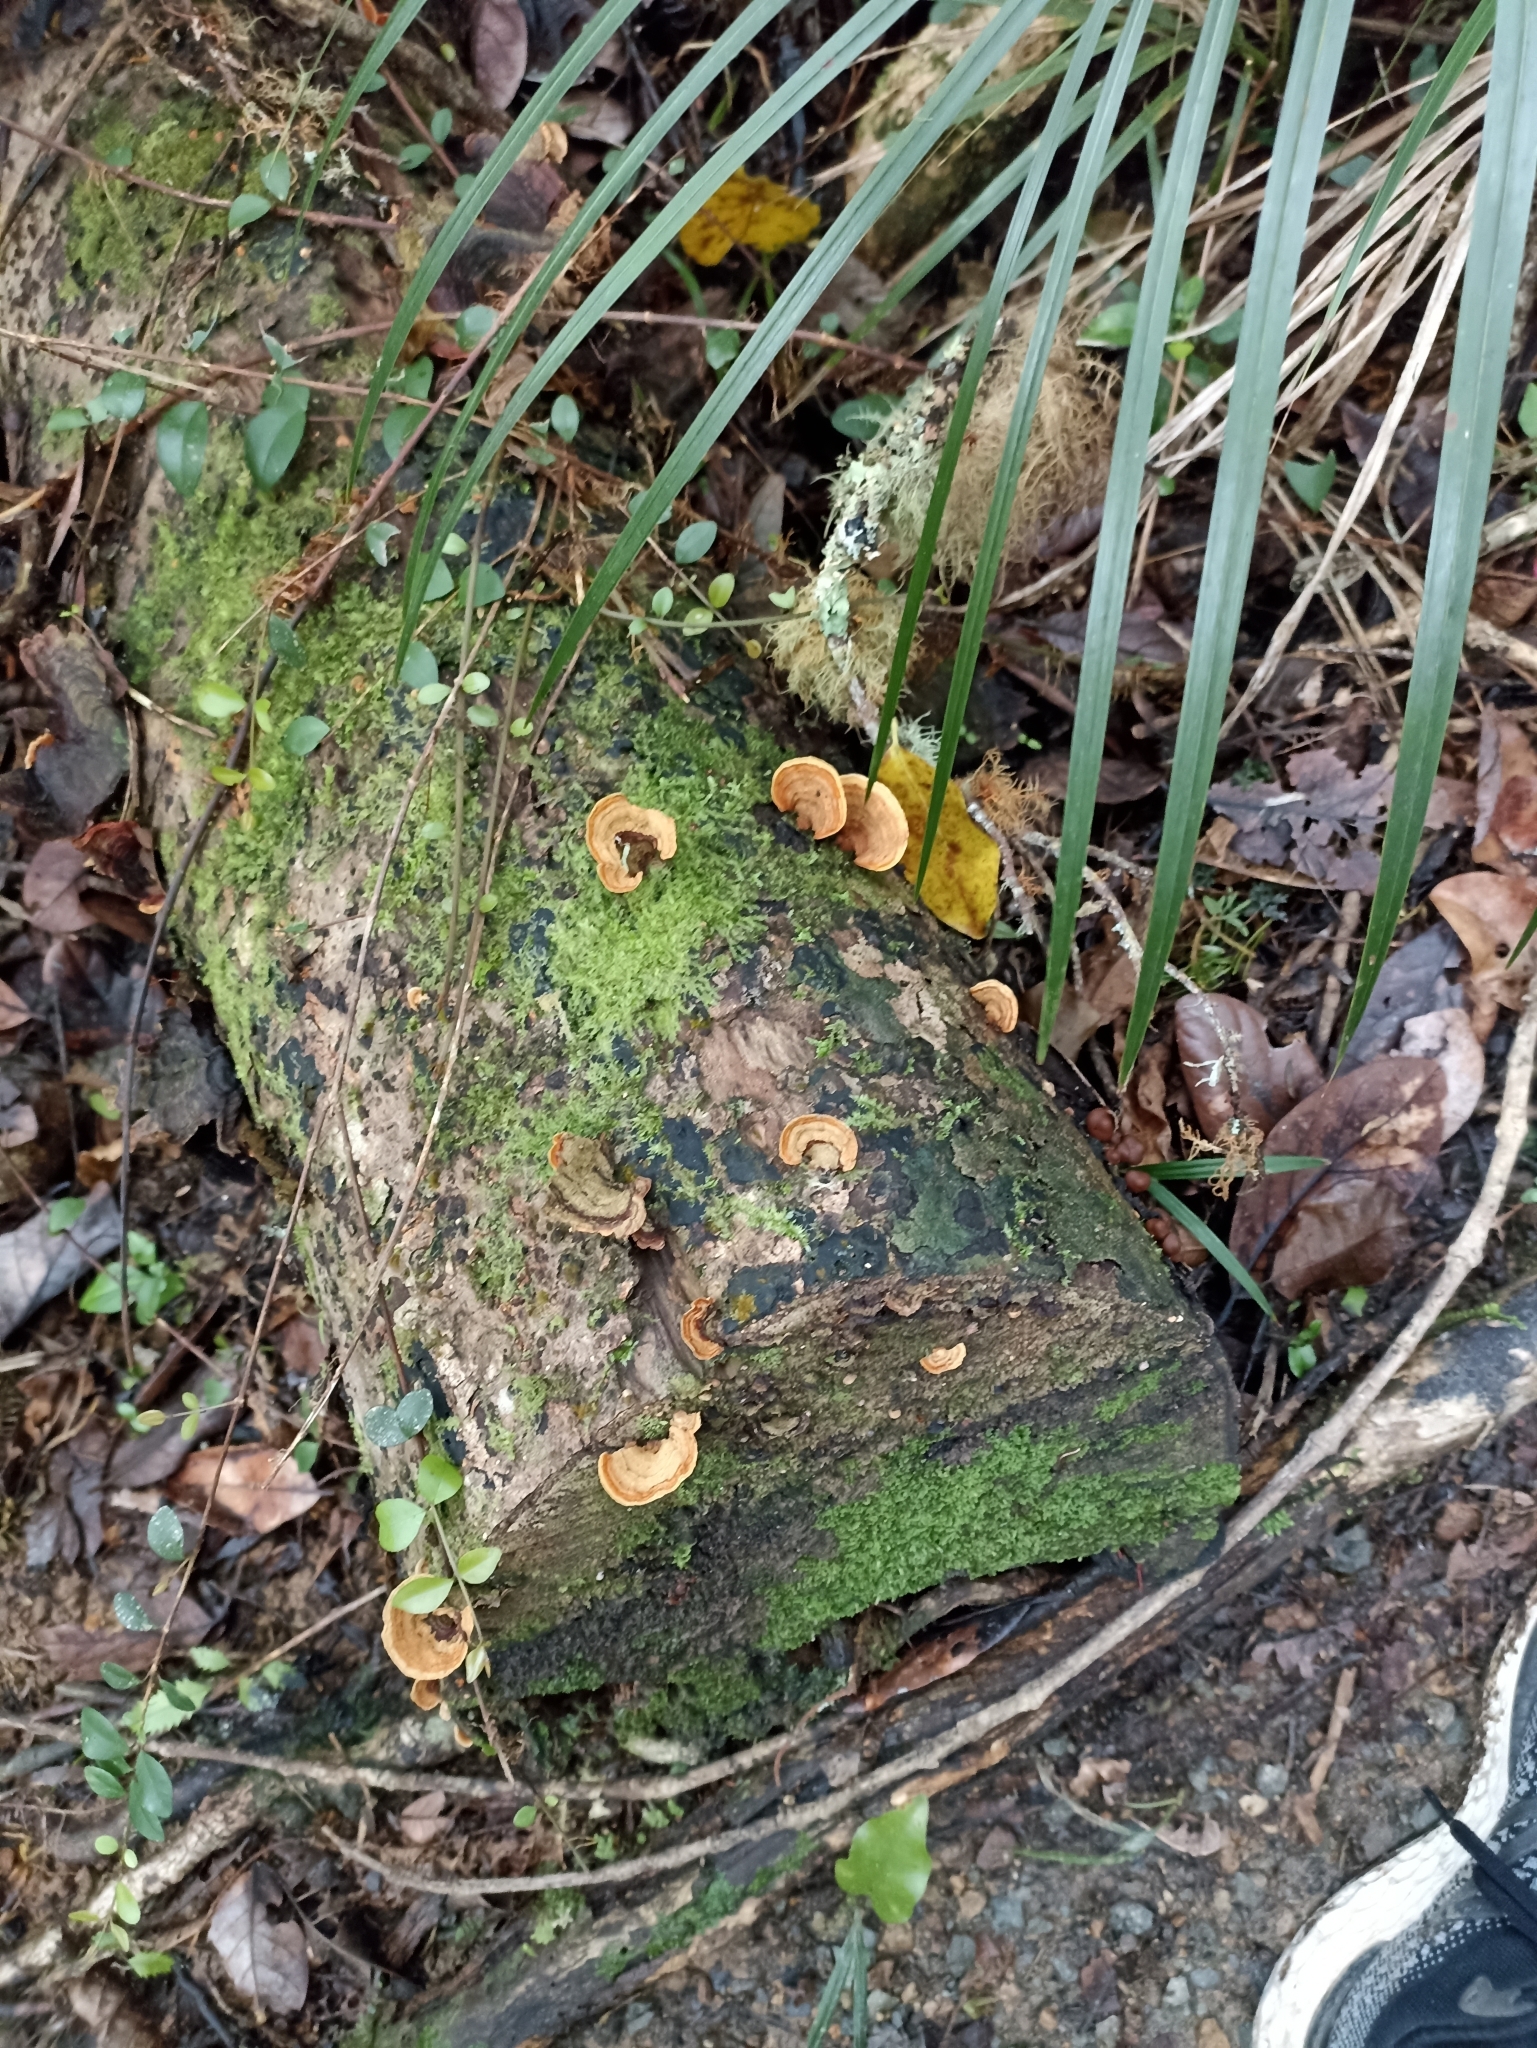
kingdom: Fungi
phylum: Basidiomycota
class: Agaricomycetes
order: Russulales
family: Stereaceae
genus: Stereum
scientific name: Stereum versicolor
